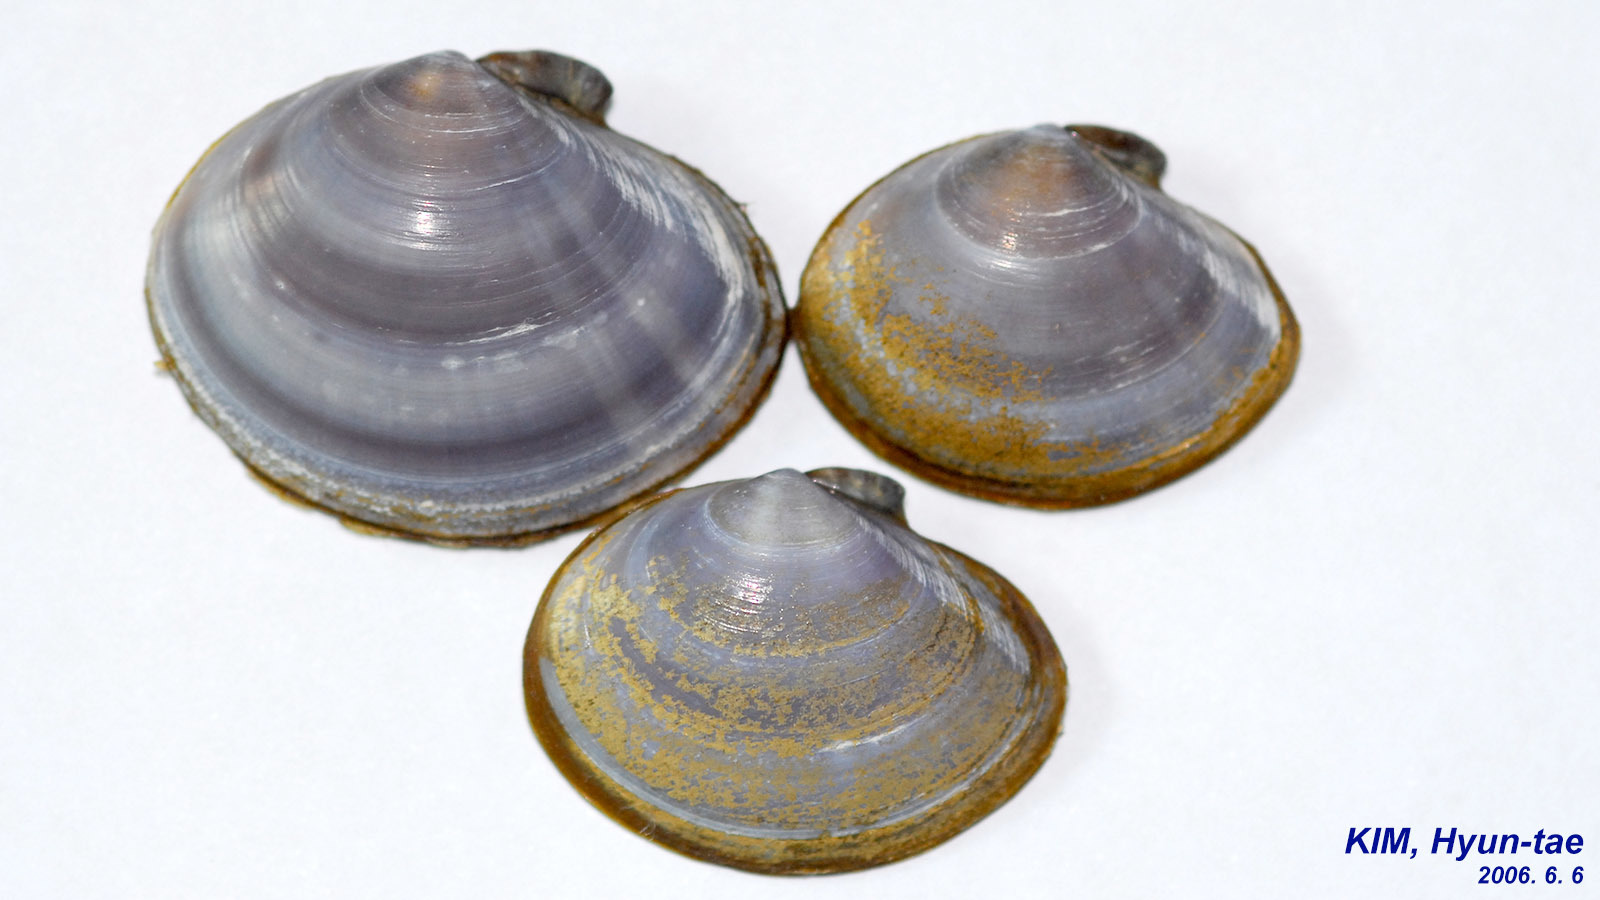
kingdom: Animalia
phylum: Mollusca
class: Bivalvia
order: Cardiida
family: Psammobiidae
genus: Nuttallia
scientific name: Nuttallia japonica
